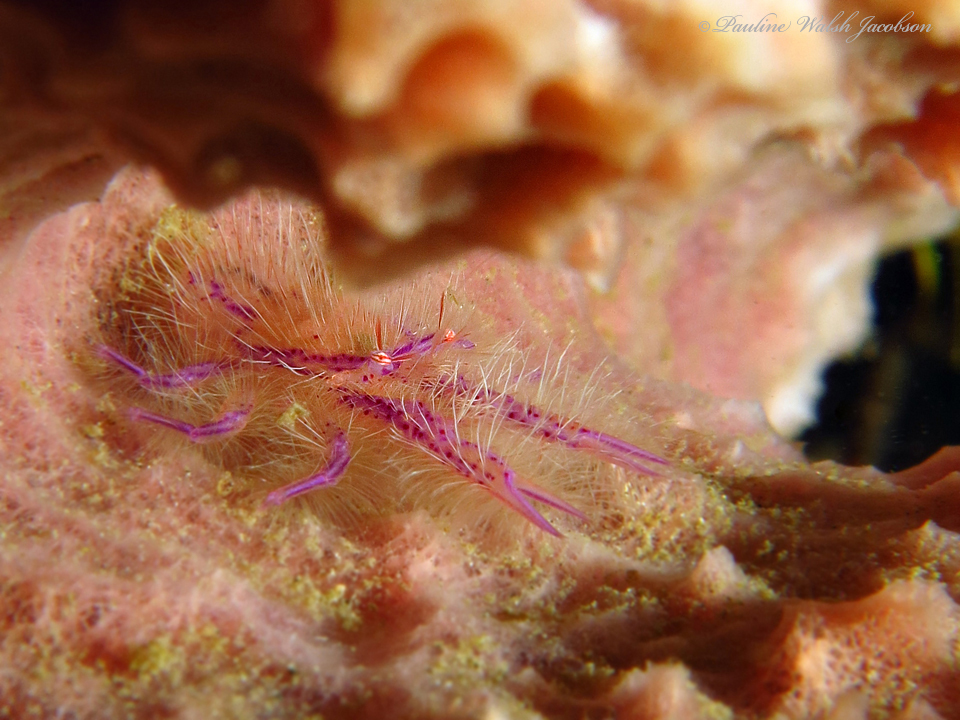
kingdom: Animalia
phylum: Arthropoda
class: Malacostraca
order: Decapoda
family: Galatheidae
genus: Lauriea
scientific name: Lauriea siagiani
